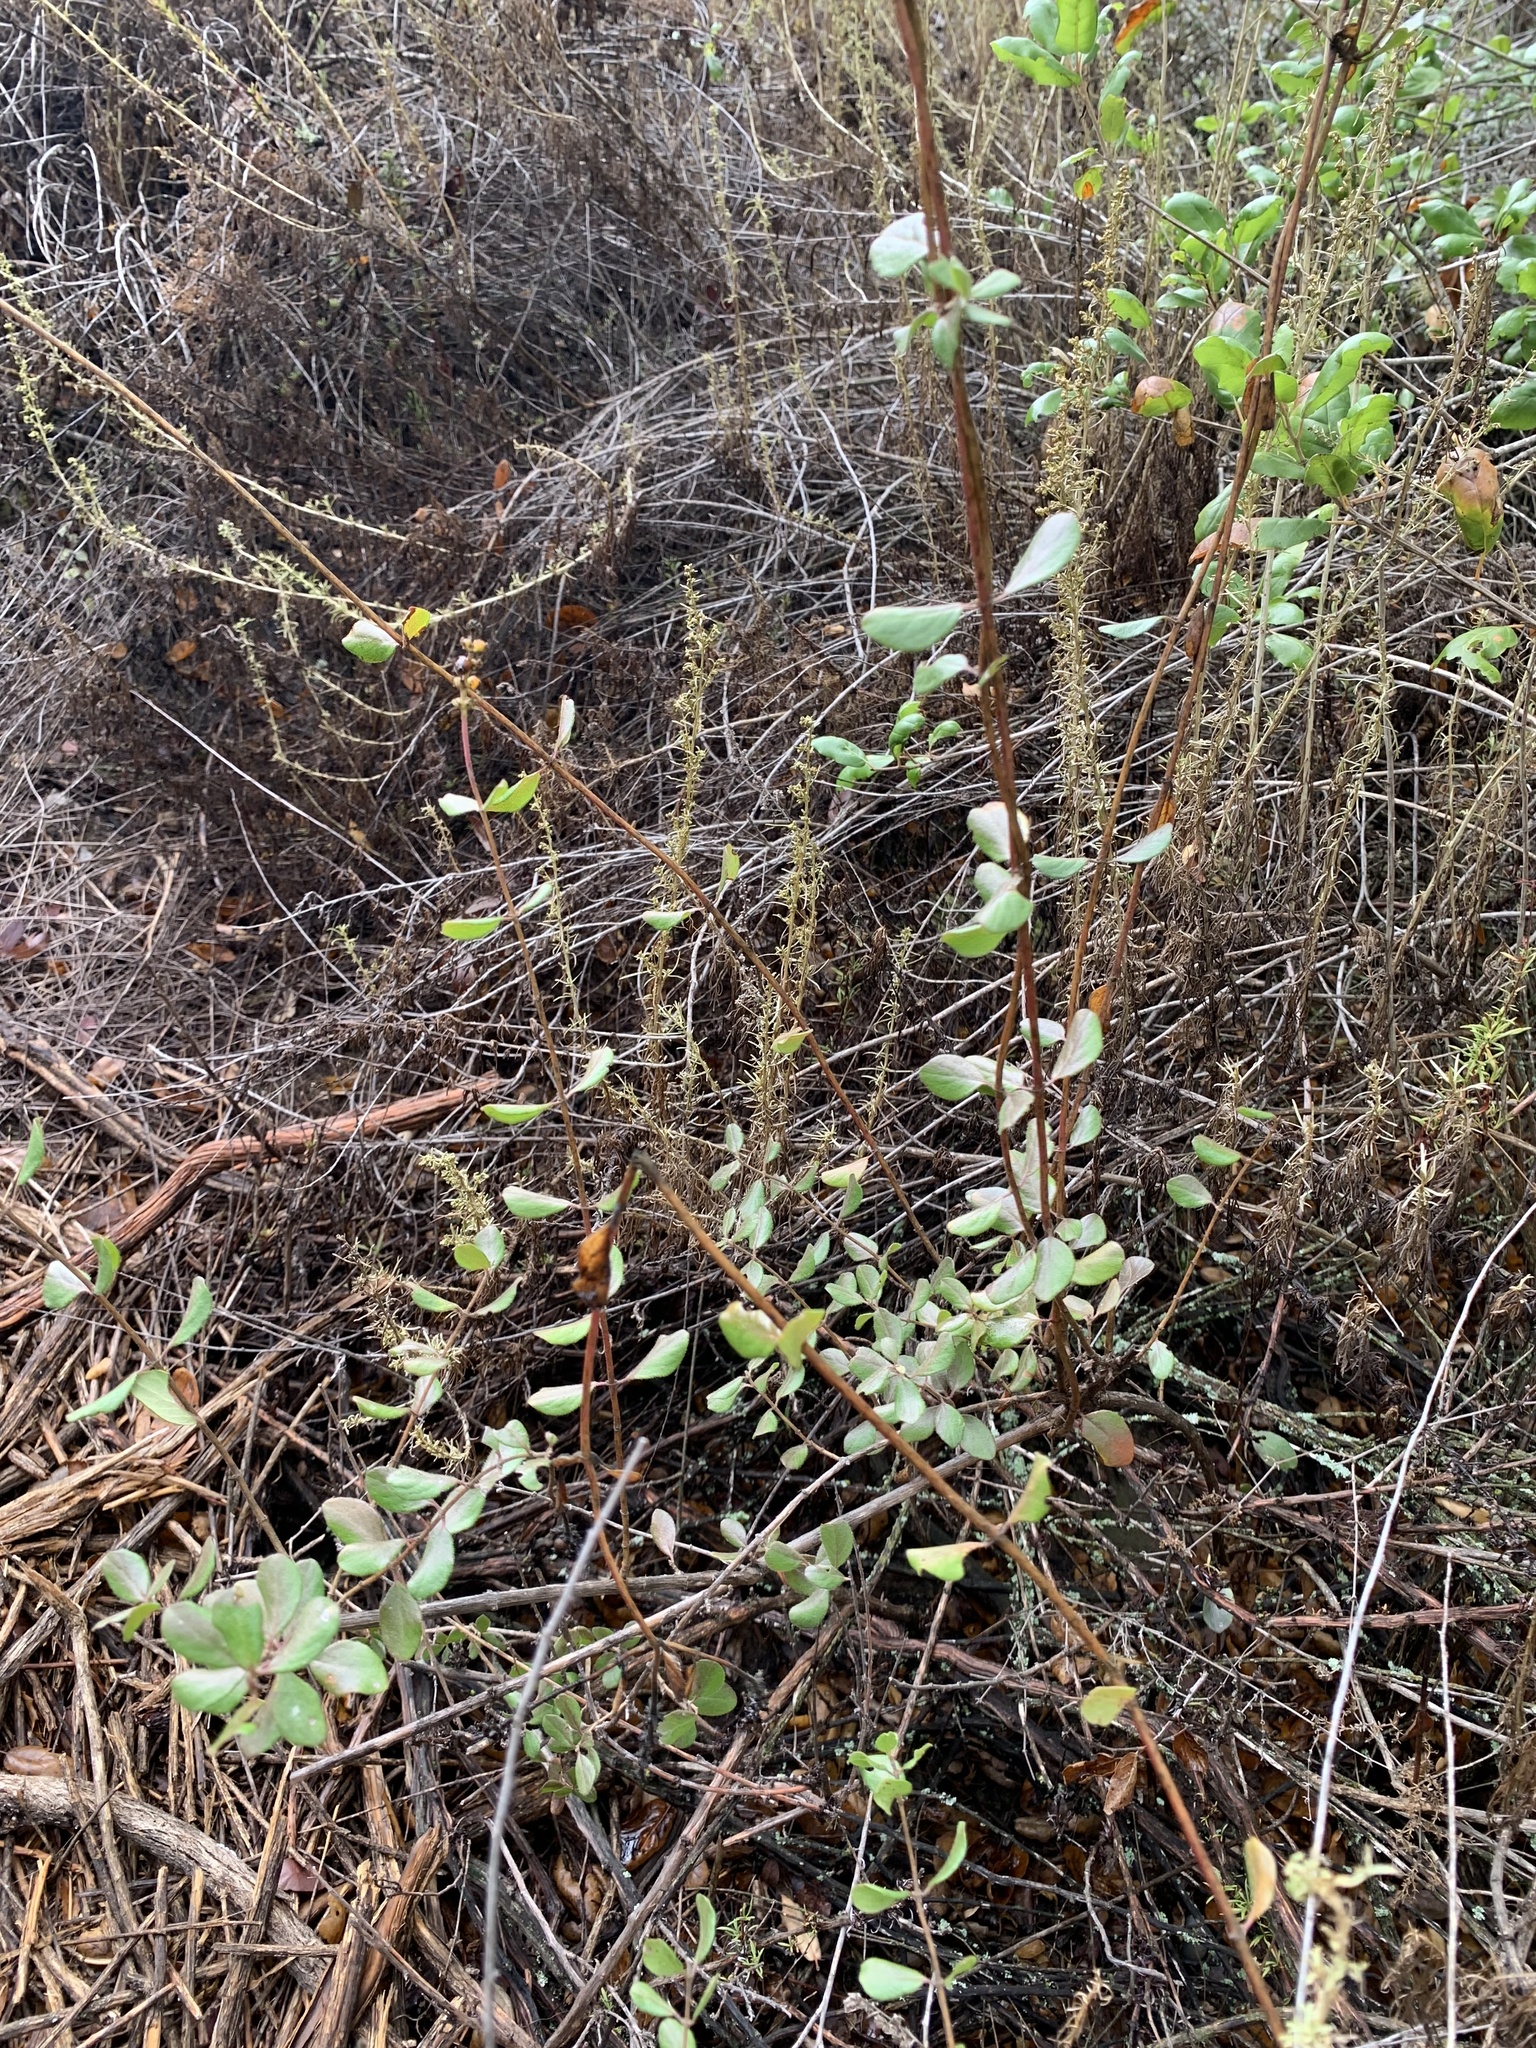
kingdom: Plantae
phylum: Tracheophyta
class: Magnoliopsida
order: Dipsacales
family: Caprifoliaceae
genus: Lonicera
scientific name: Lonicera subspicata
